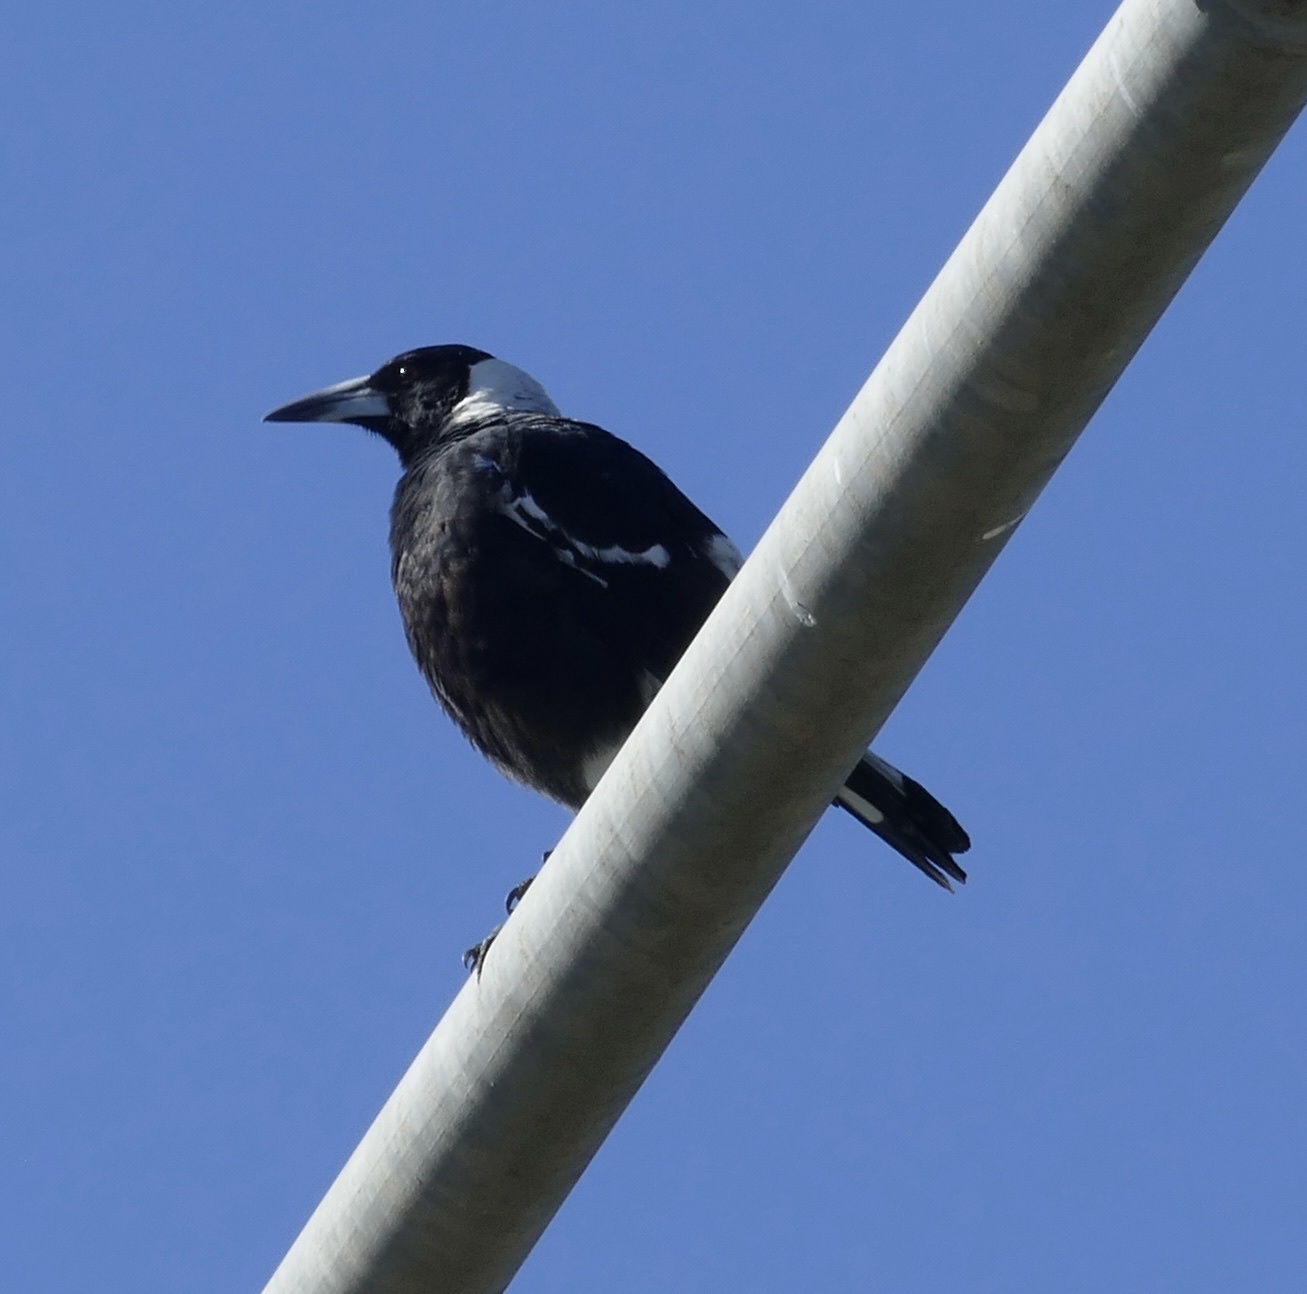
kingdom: Animalia
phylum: Chordata
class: Aves
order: Passeriformes
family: Cracticidae
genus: Gymnorhina
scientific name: Gymnorhina tibicen
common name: Australian magpie
